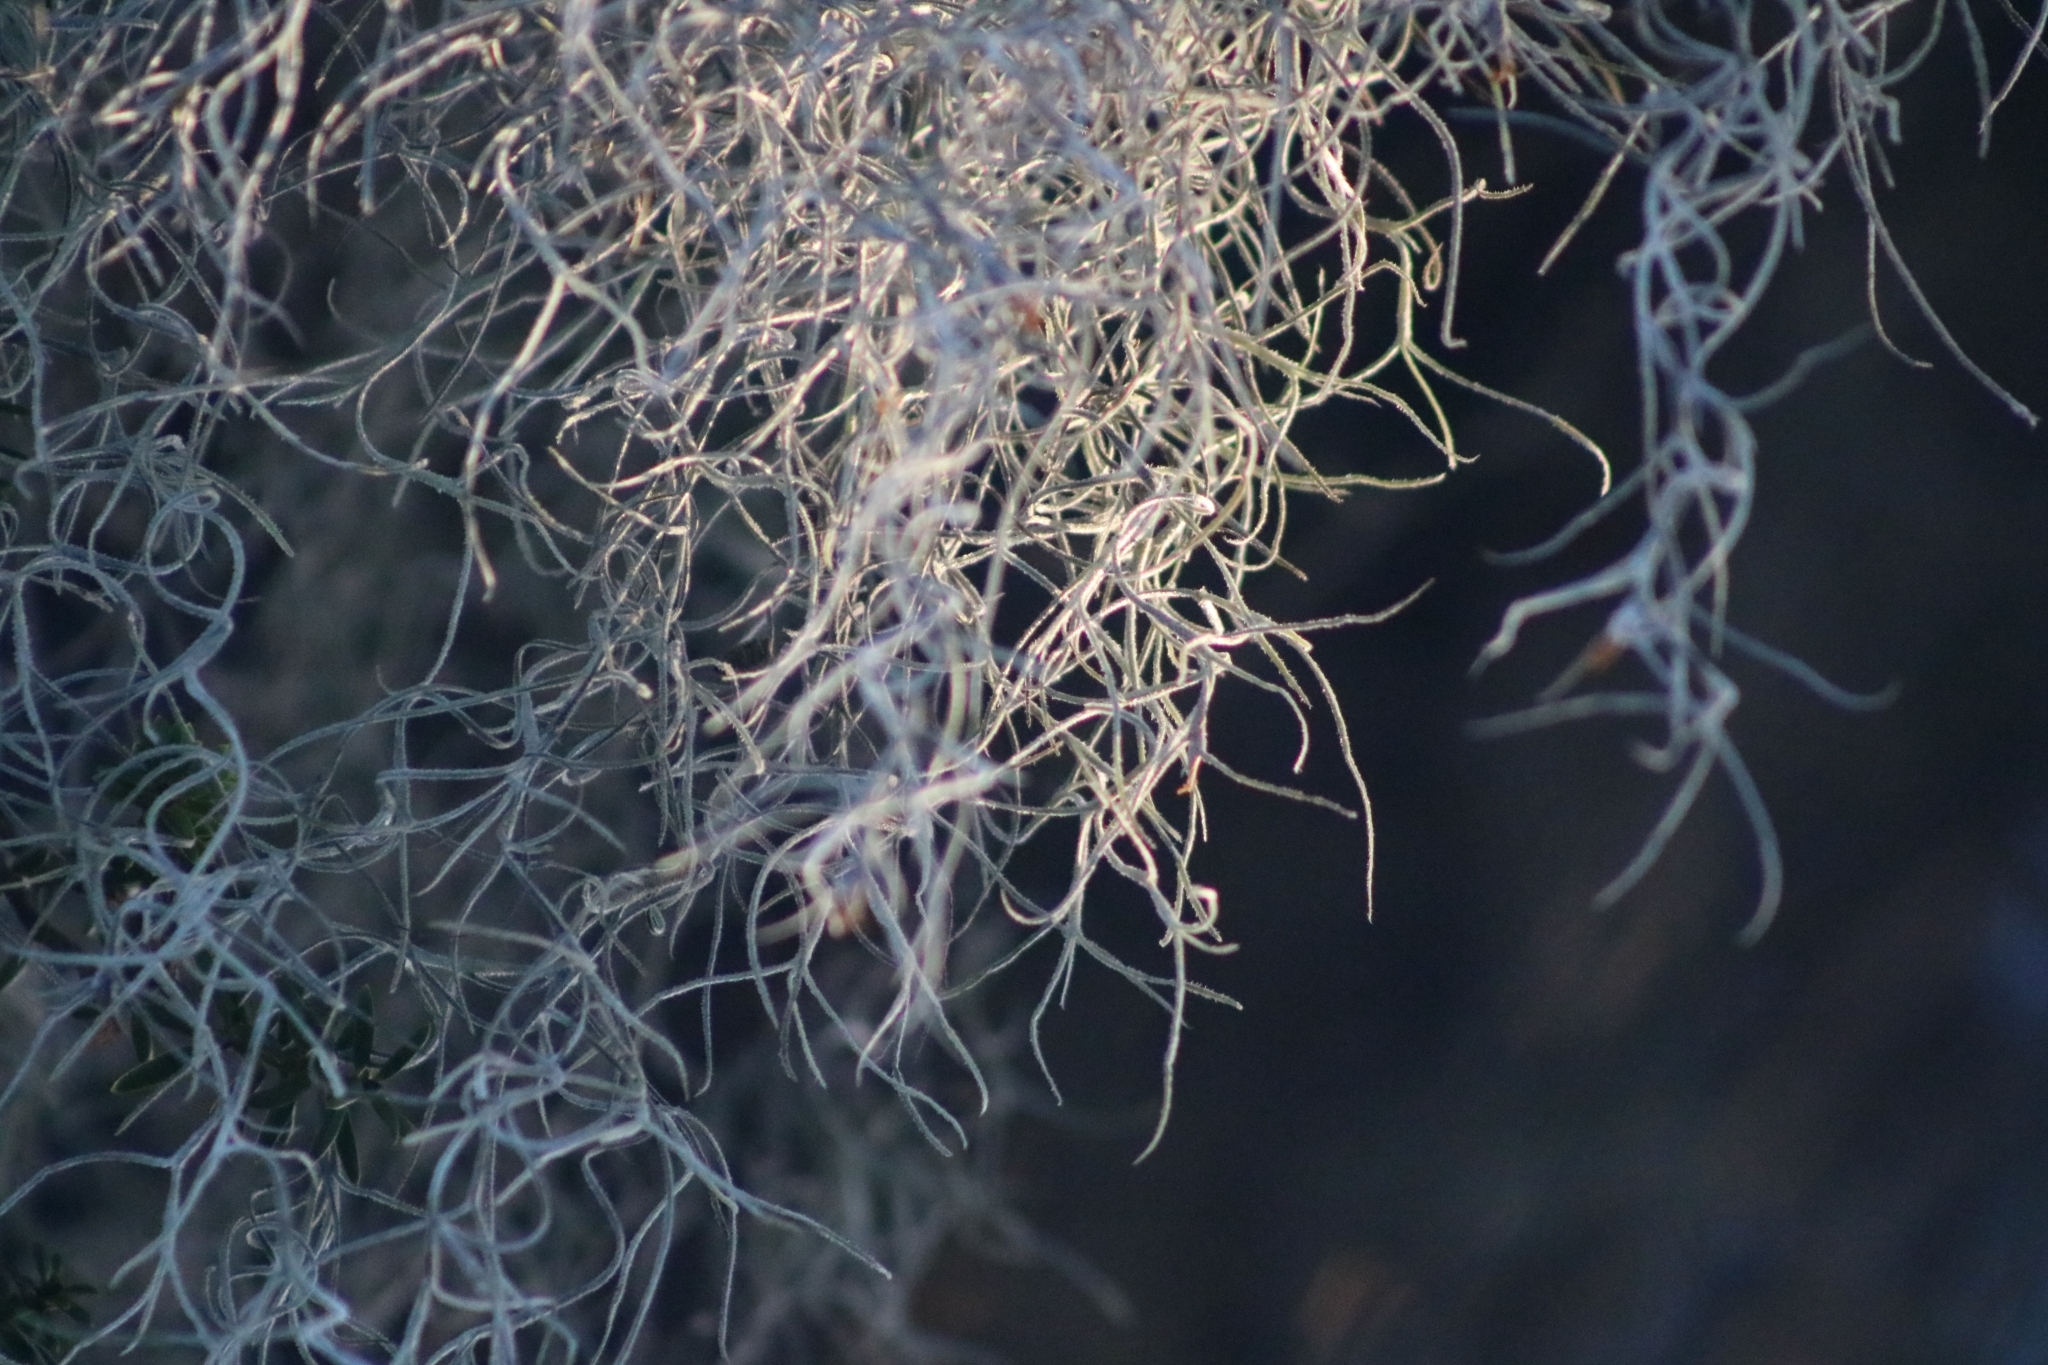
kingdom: Plantae
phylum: Tracheophyta
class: Liliopsida
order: Poales
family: Bromeliaceae
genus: Tillandsia
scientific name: Tillandsia usneoides
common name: Spanish moss
